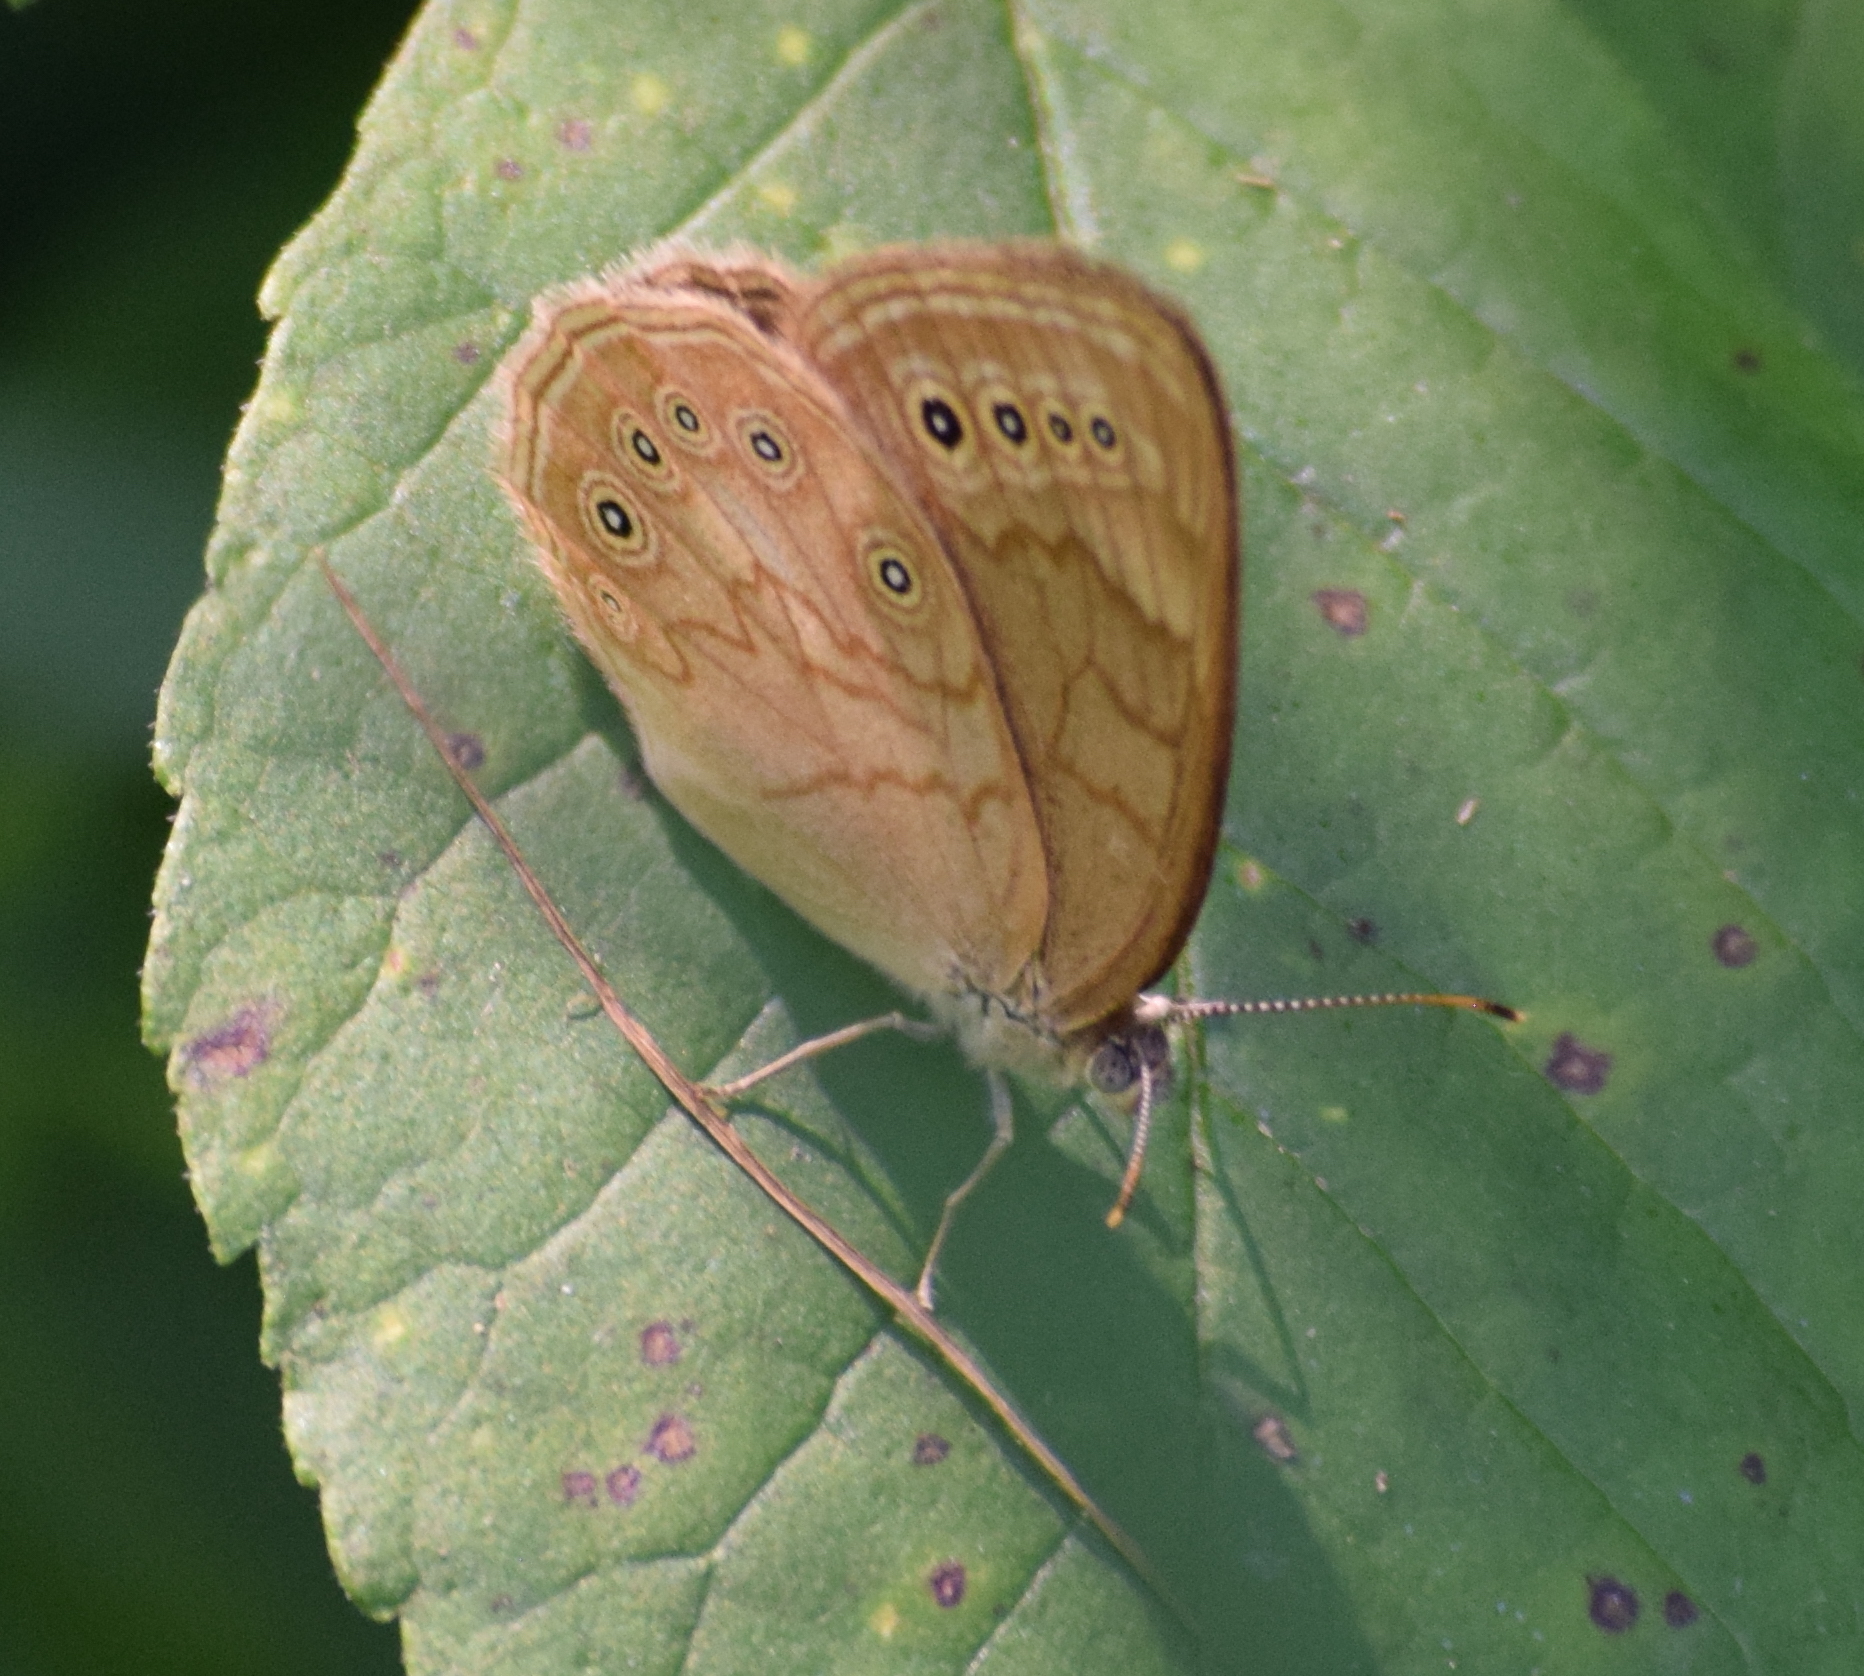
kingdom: Animalia
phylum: Arthropoda
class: Insecta
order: Lepidoptera
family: Nymphalidae
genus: Lethe
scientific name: Lethe eurydice
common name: Eyed brown
